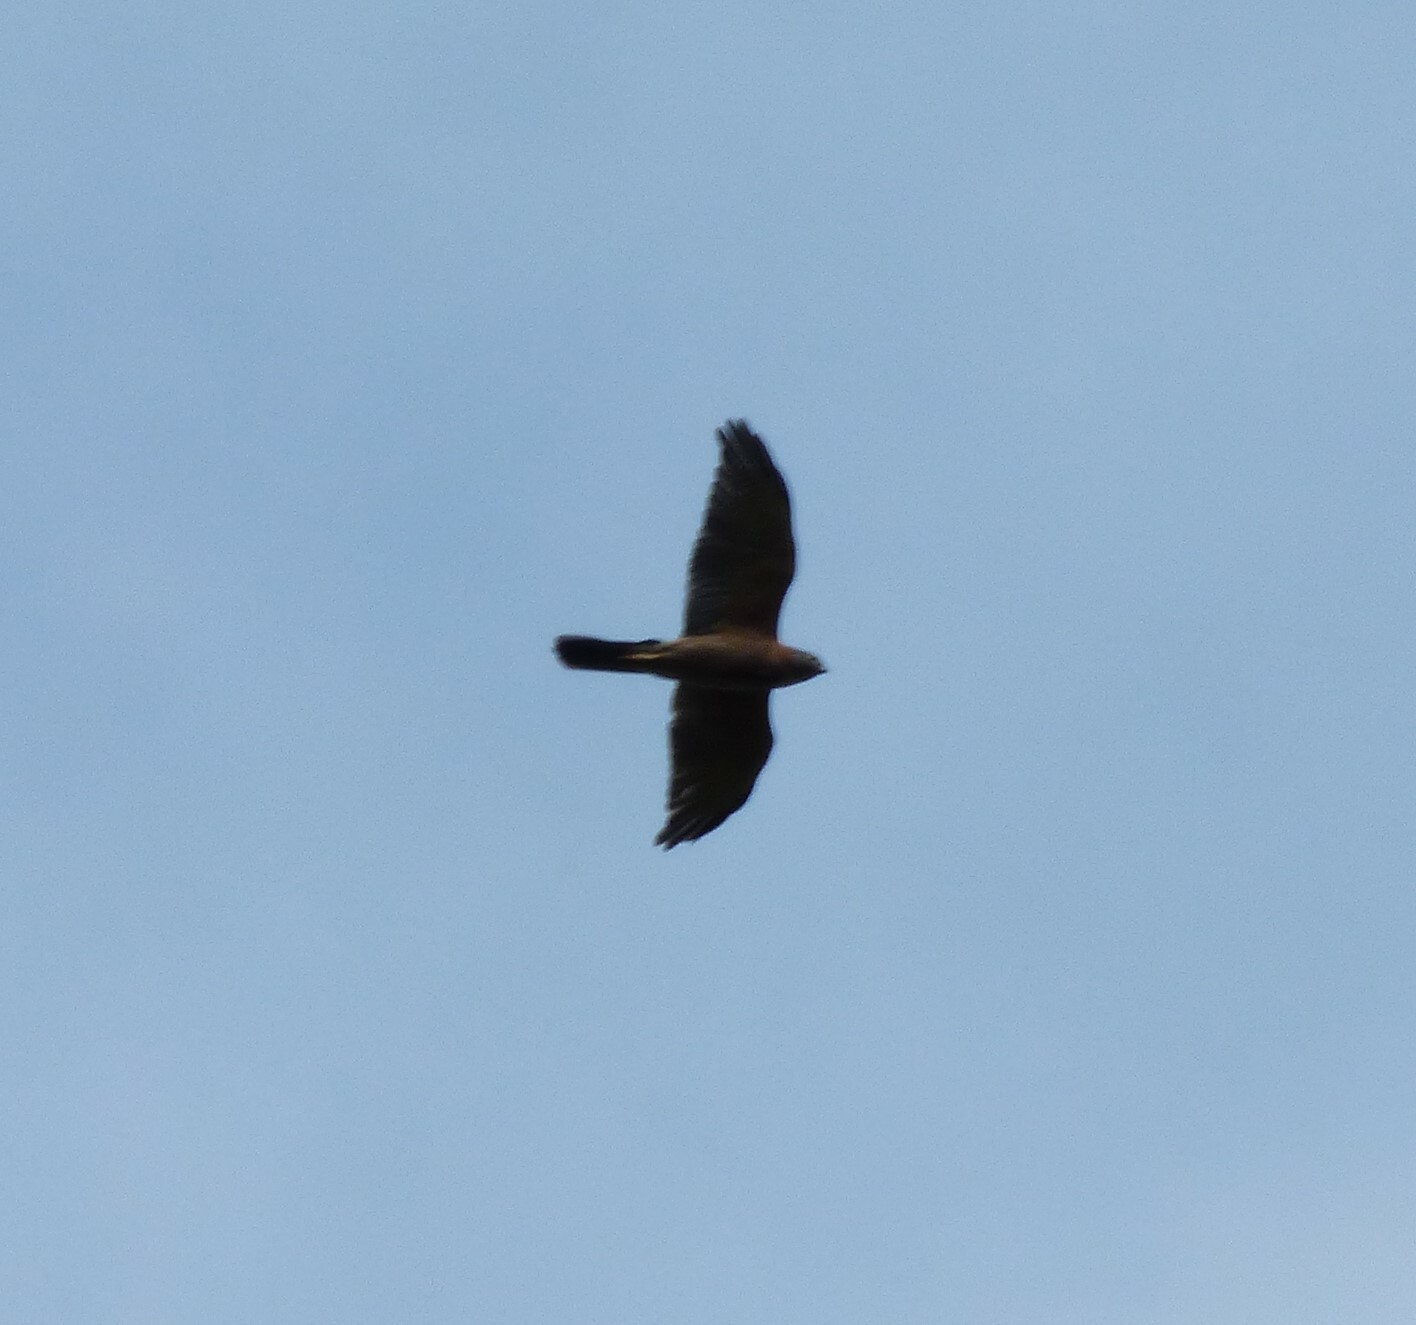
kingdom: Animalia
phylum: Chordata
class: Aves
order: Accipitriformes
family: Accipitridae
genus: Accipiter
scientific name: Accipiter fasciatus
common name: Brown goshawk
